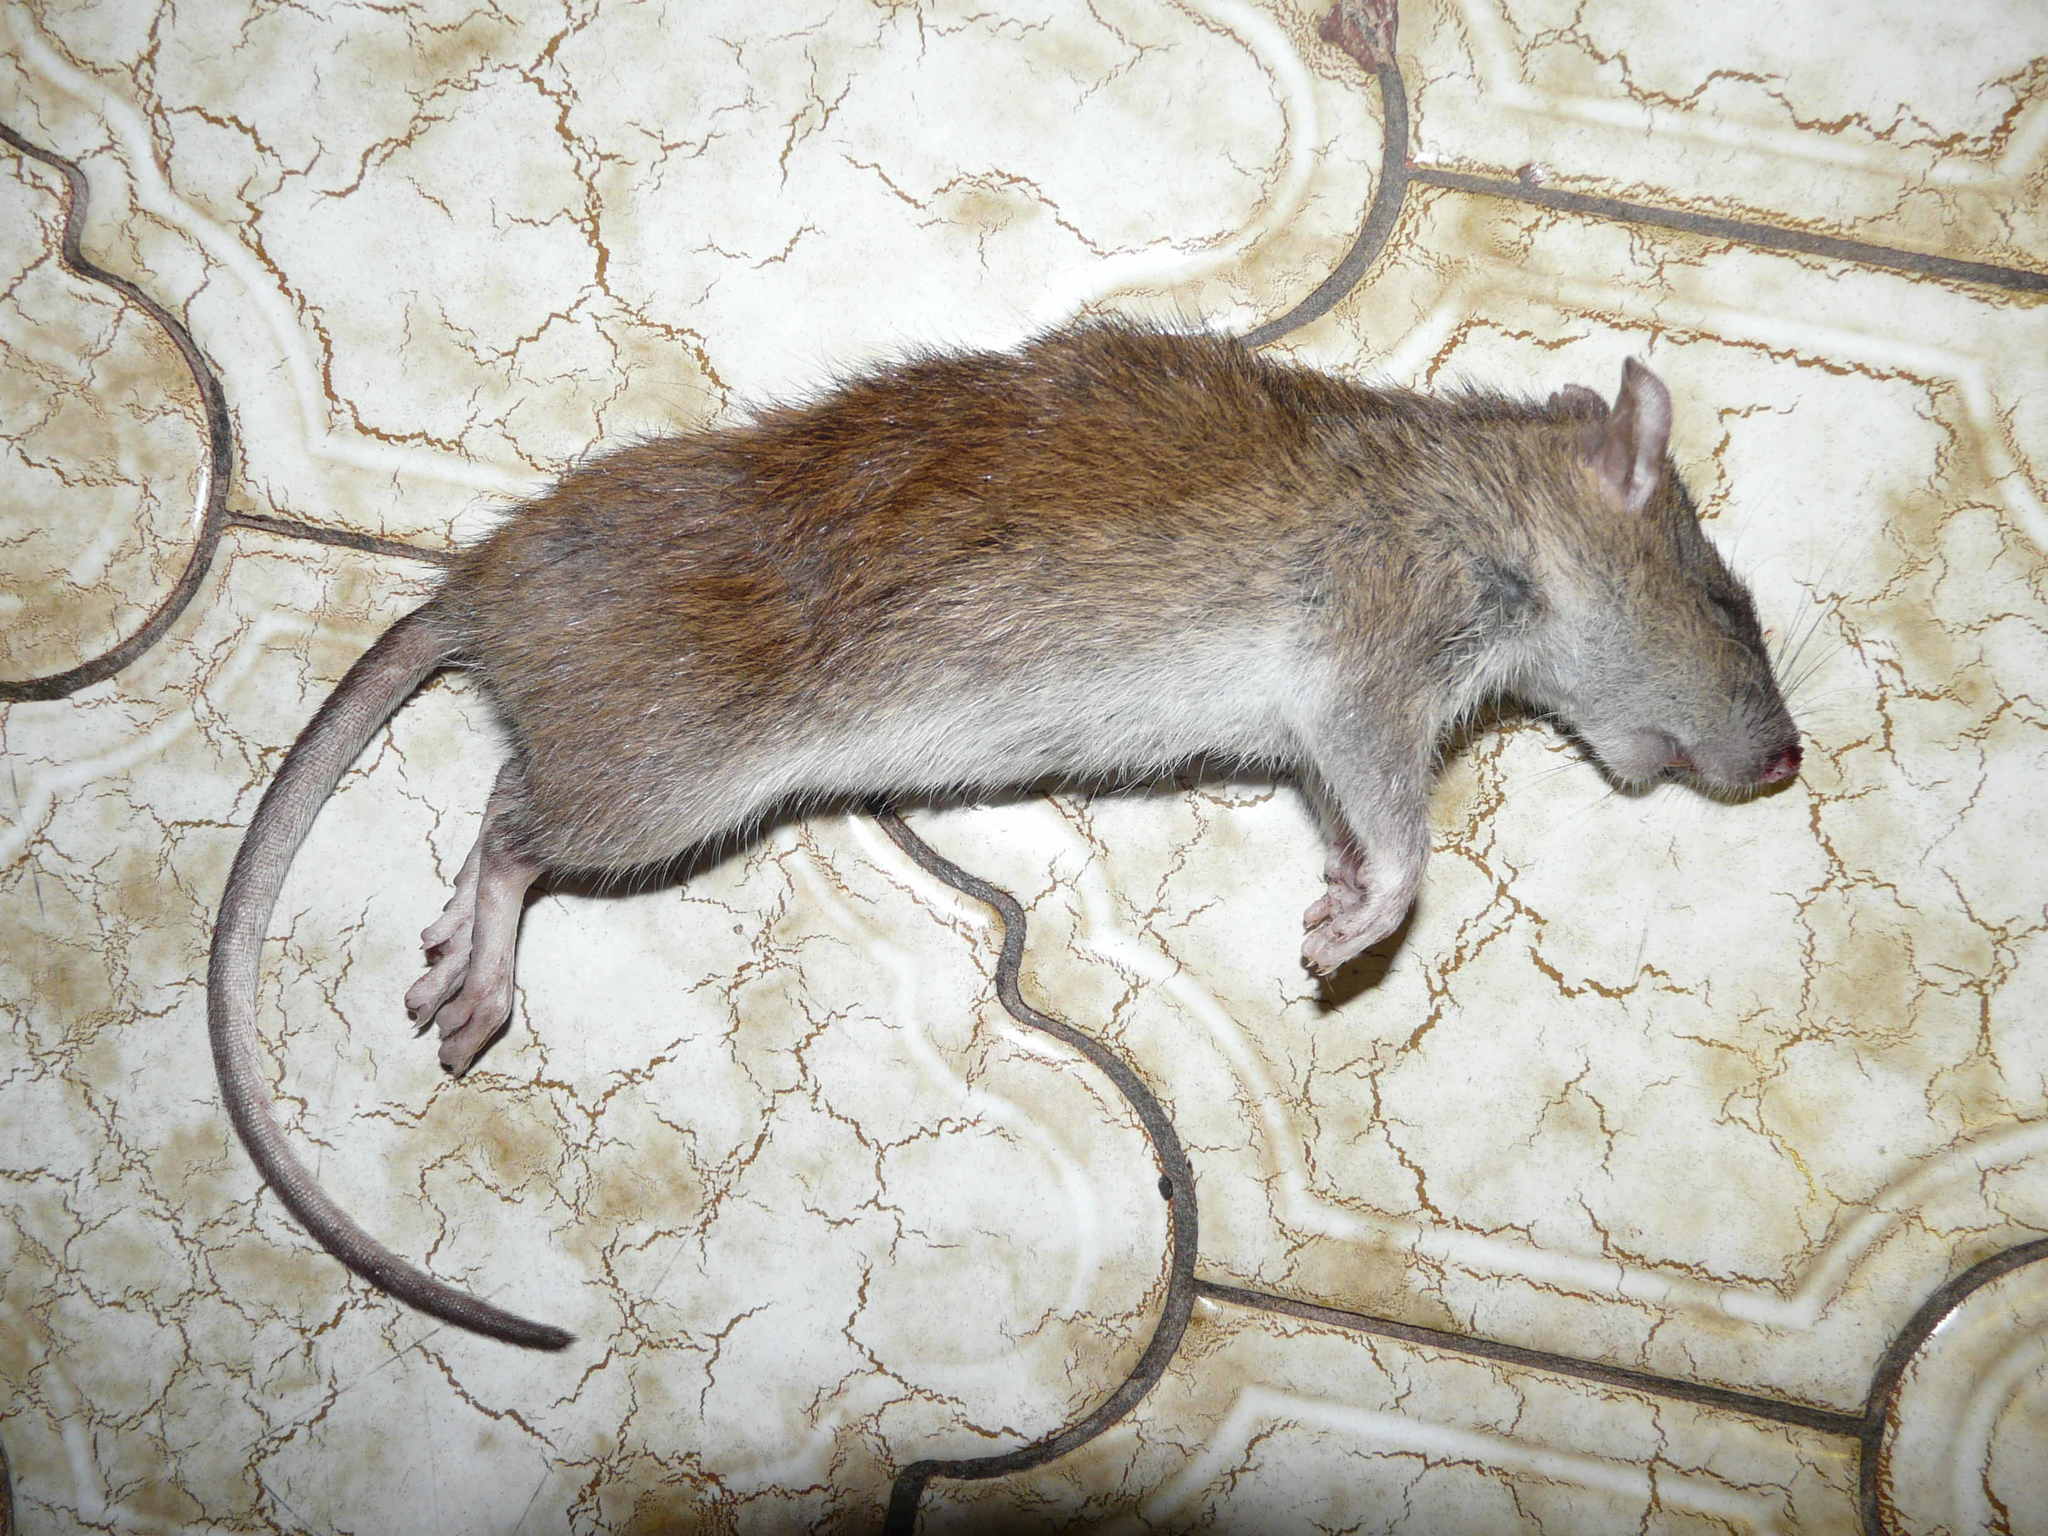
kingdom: Animalia
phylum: Chordata
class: Mammalia
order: Rodentia
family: Muridae
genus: Rattus
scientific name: Rattus norvegicus
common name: Brown rat
